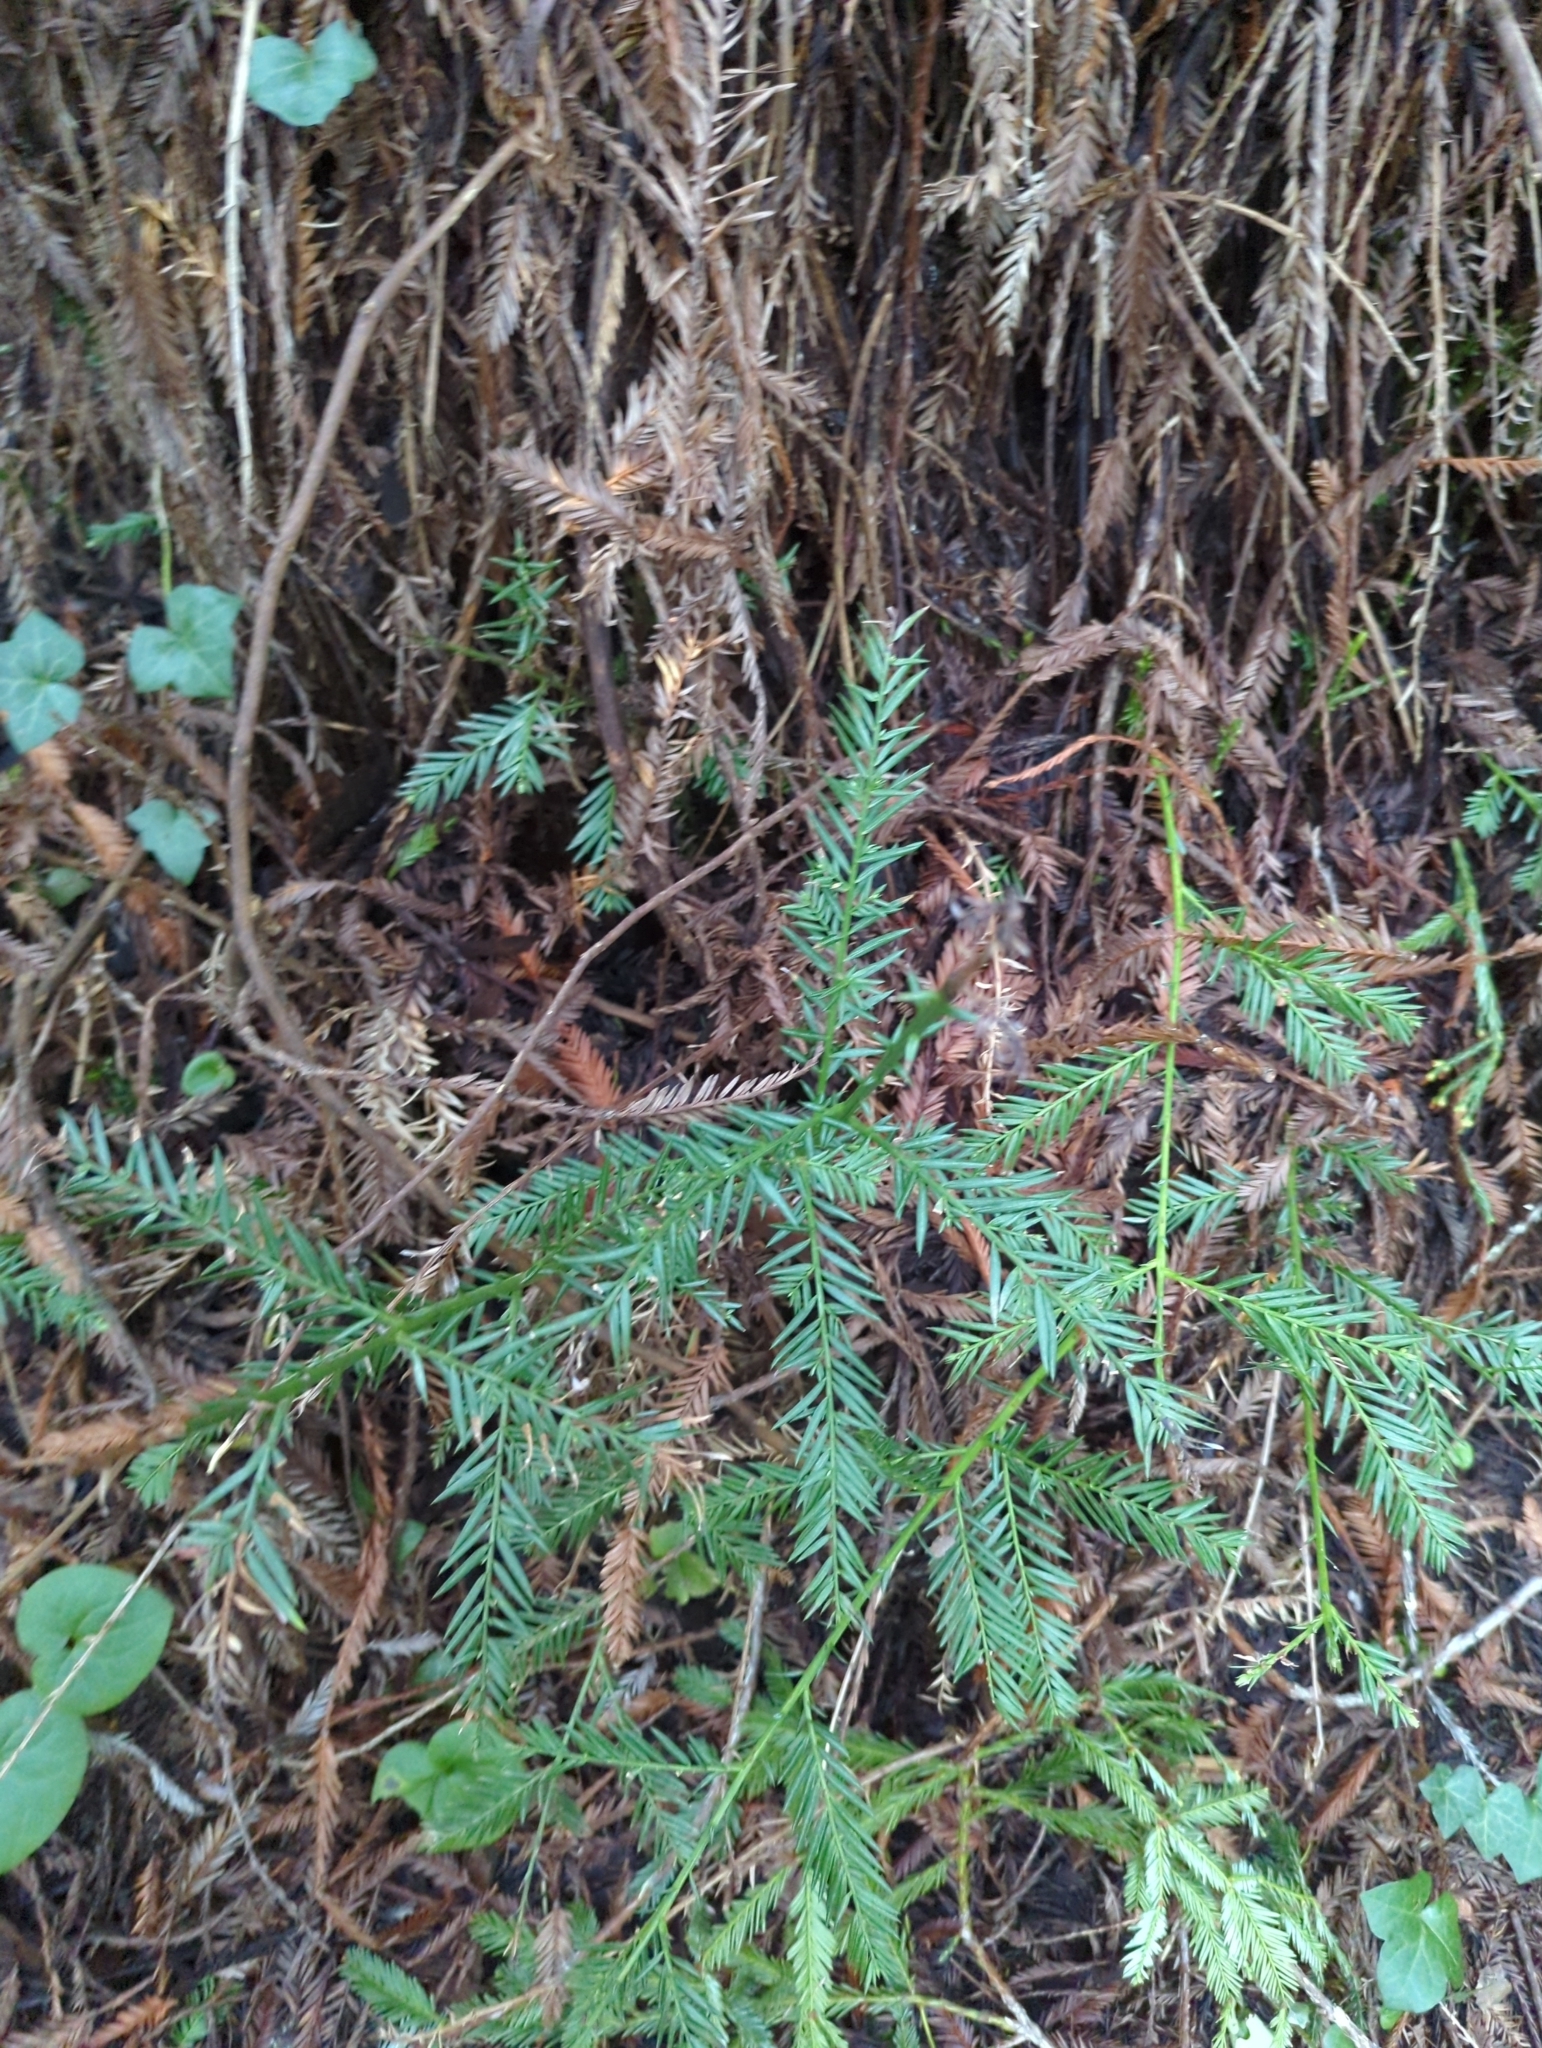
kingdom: Plantae
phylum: Tracheophyta
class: Pinopsida
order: Pinales
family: Cupressaceae
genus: Sequoia
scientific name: Sequoia sempervirens
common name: Coast redwood
